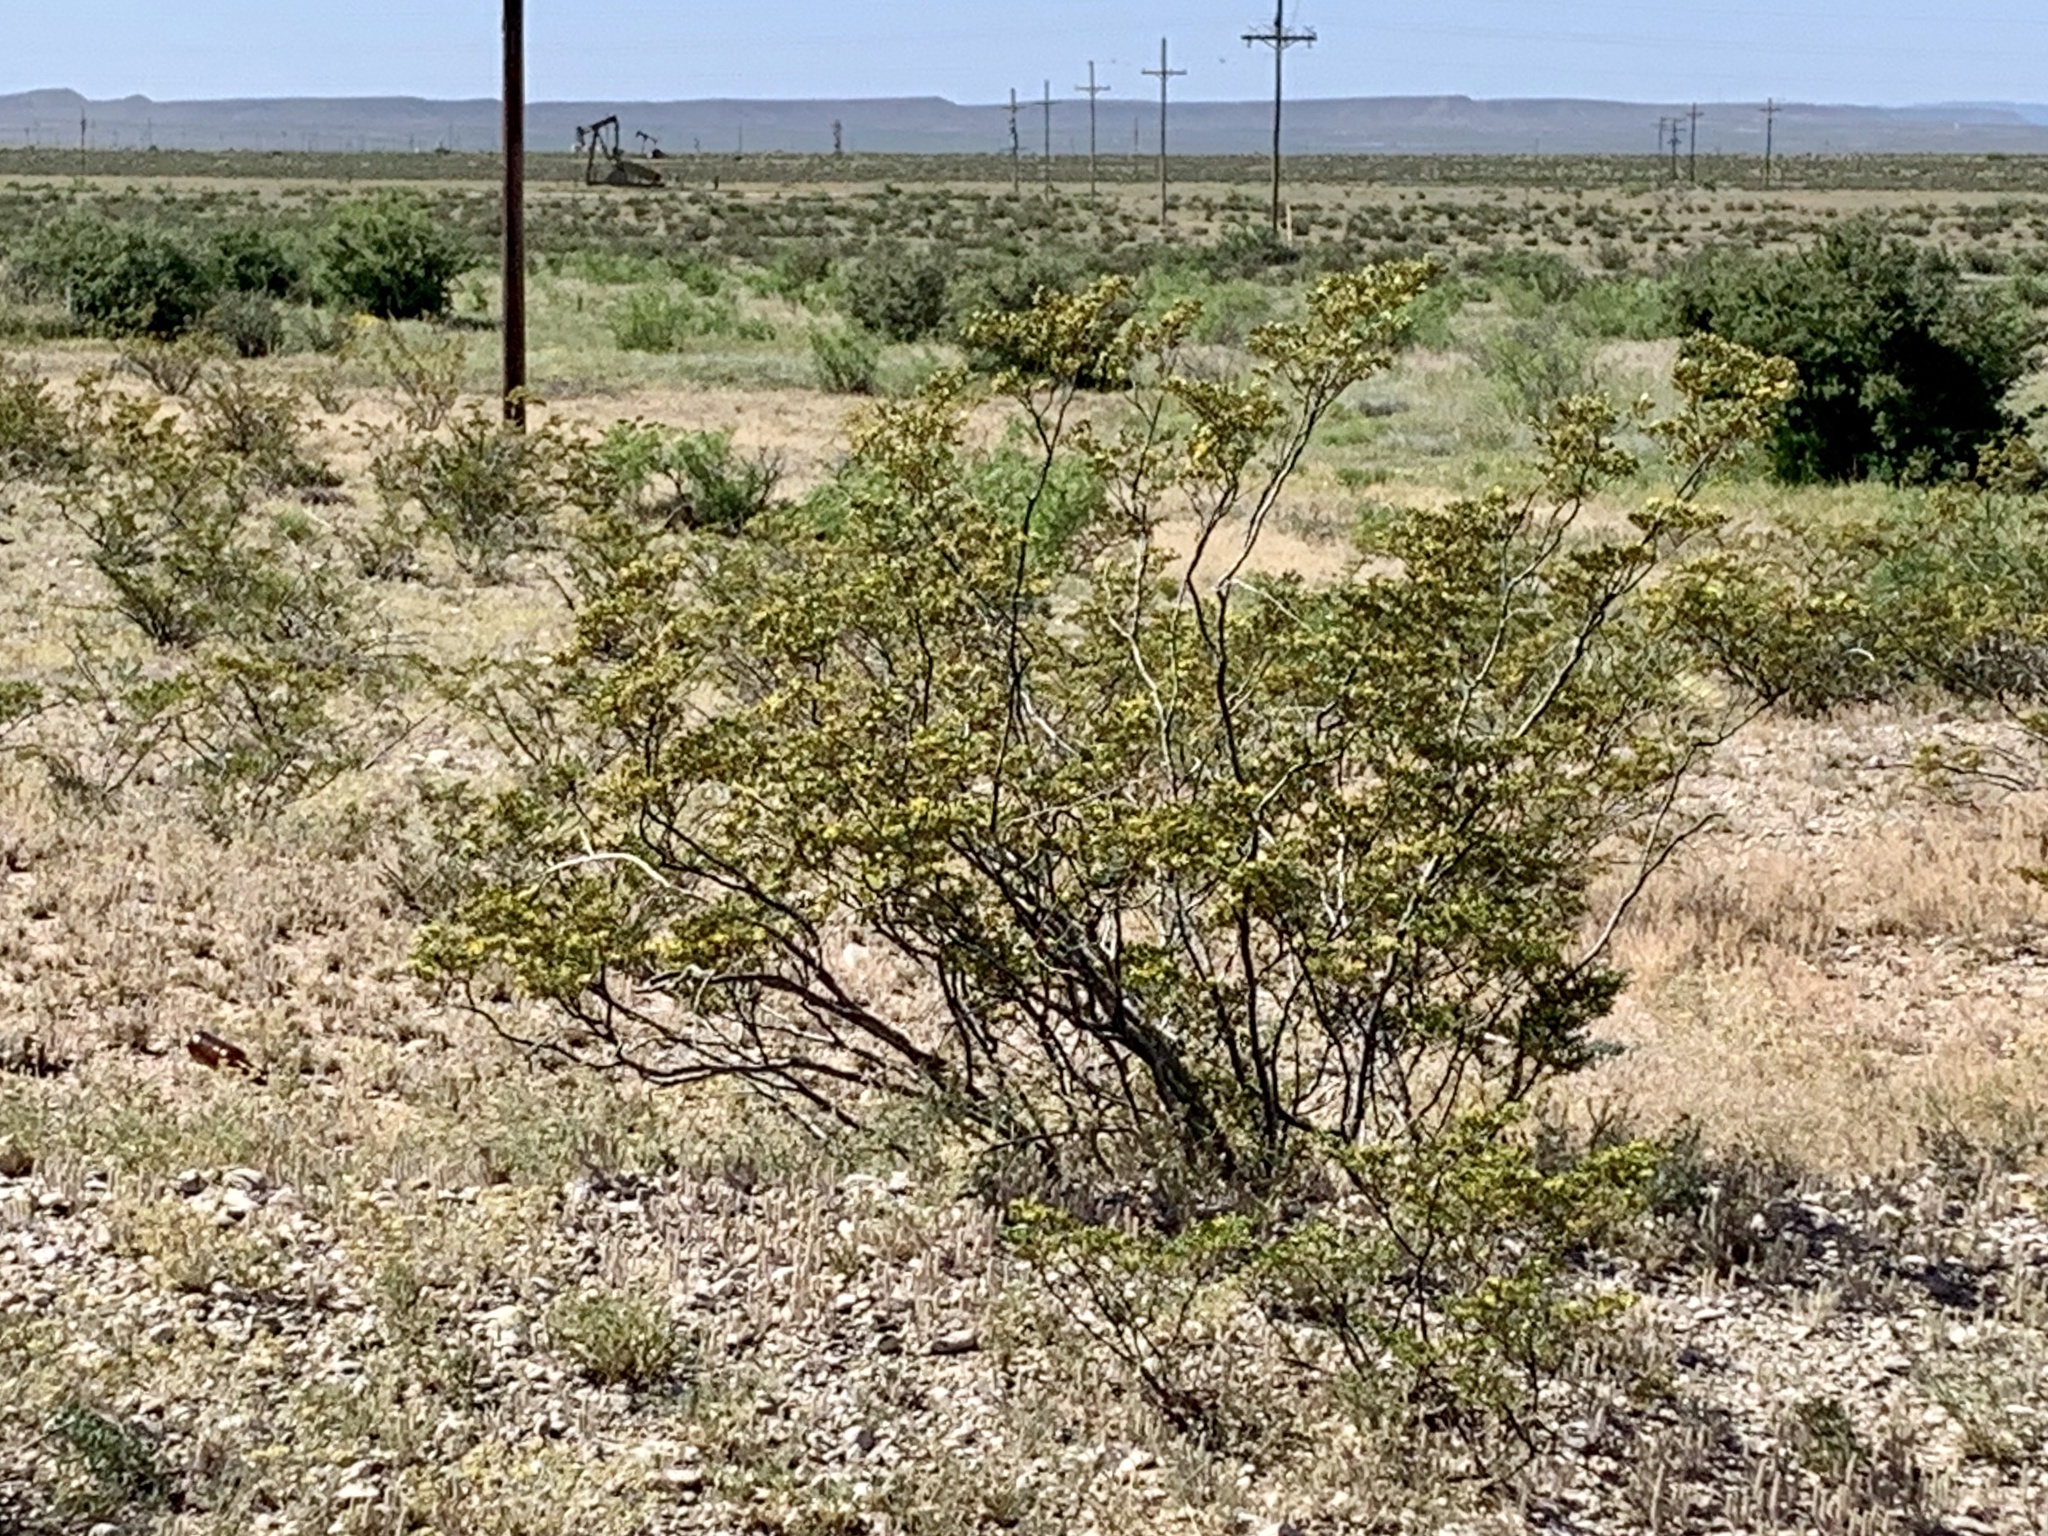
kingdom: Plantae
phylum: Tracheophyta
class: Magnoliopsida
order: Zygophyllales
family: Zygophyllaceae
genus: Larrea
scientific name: Larrea tridentata
